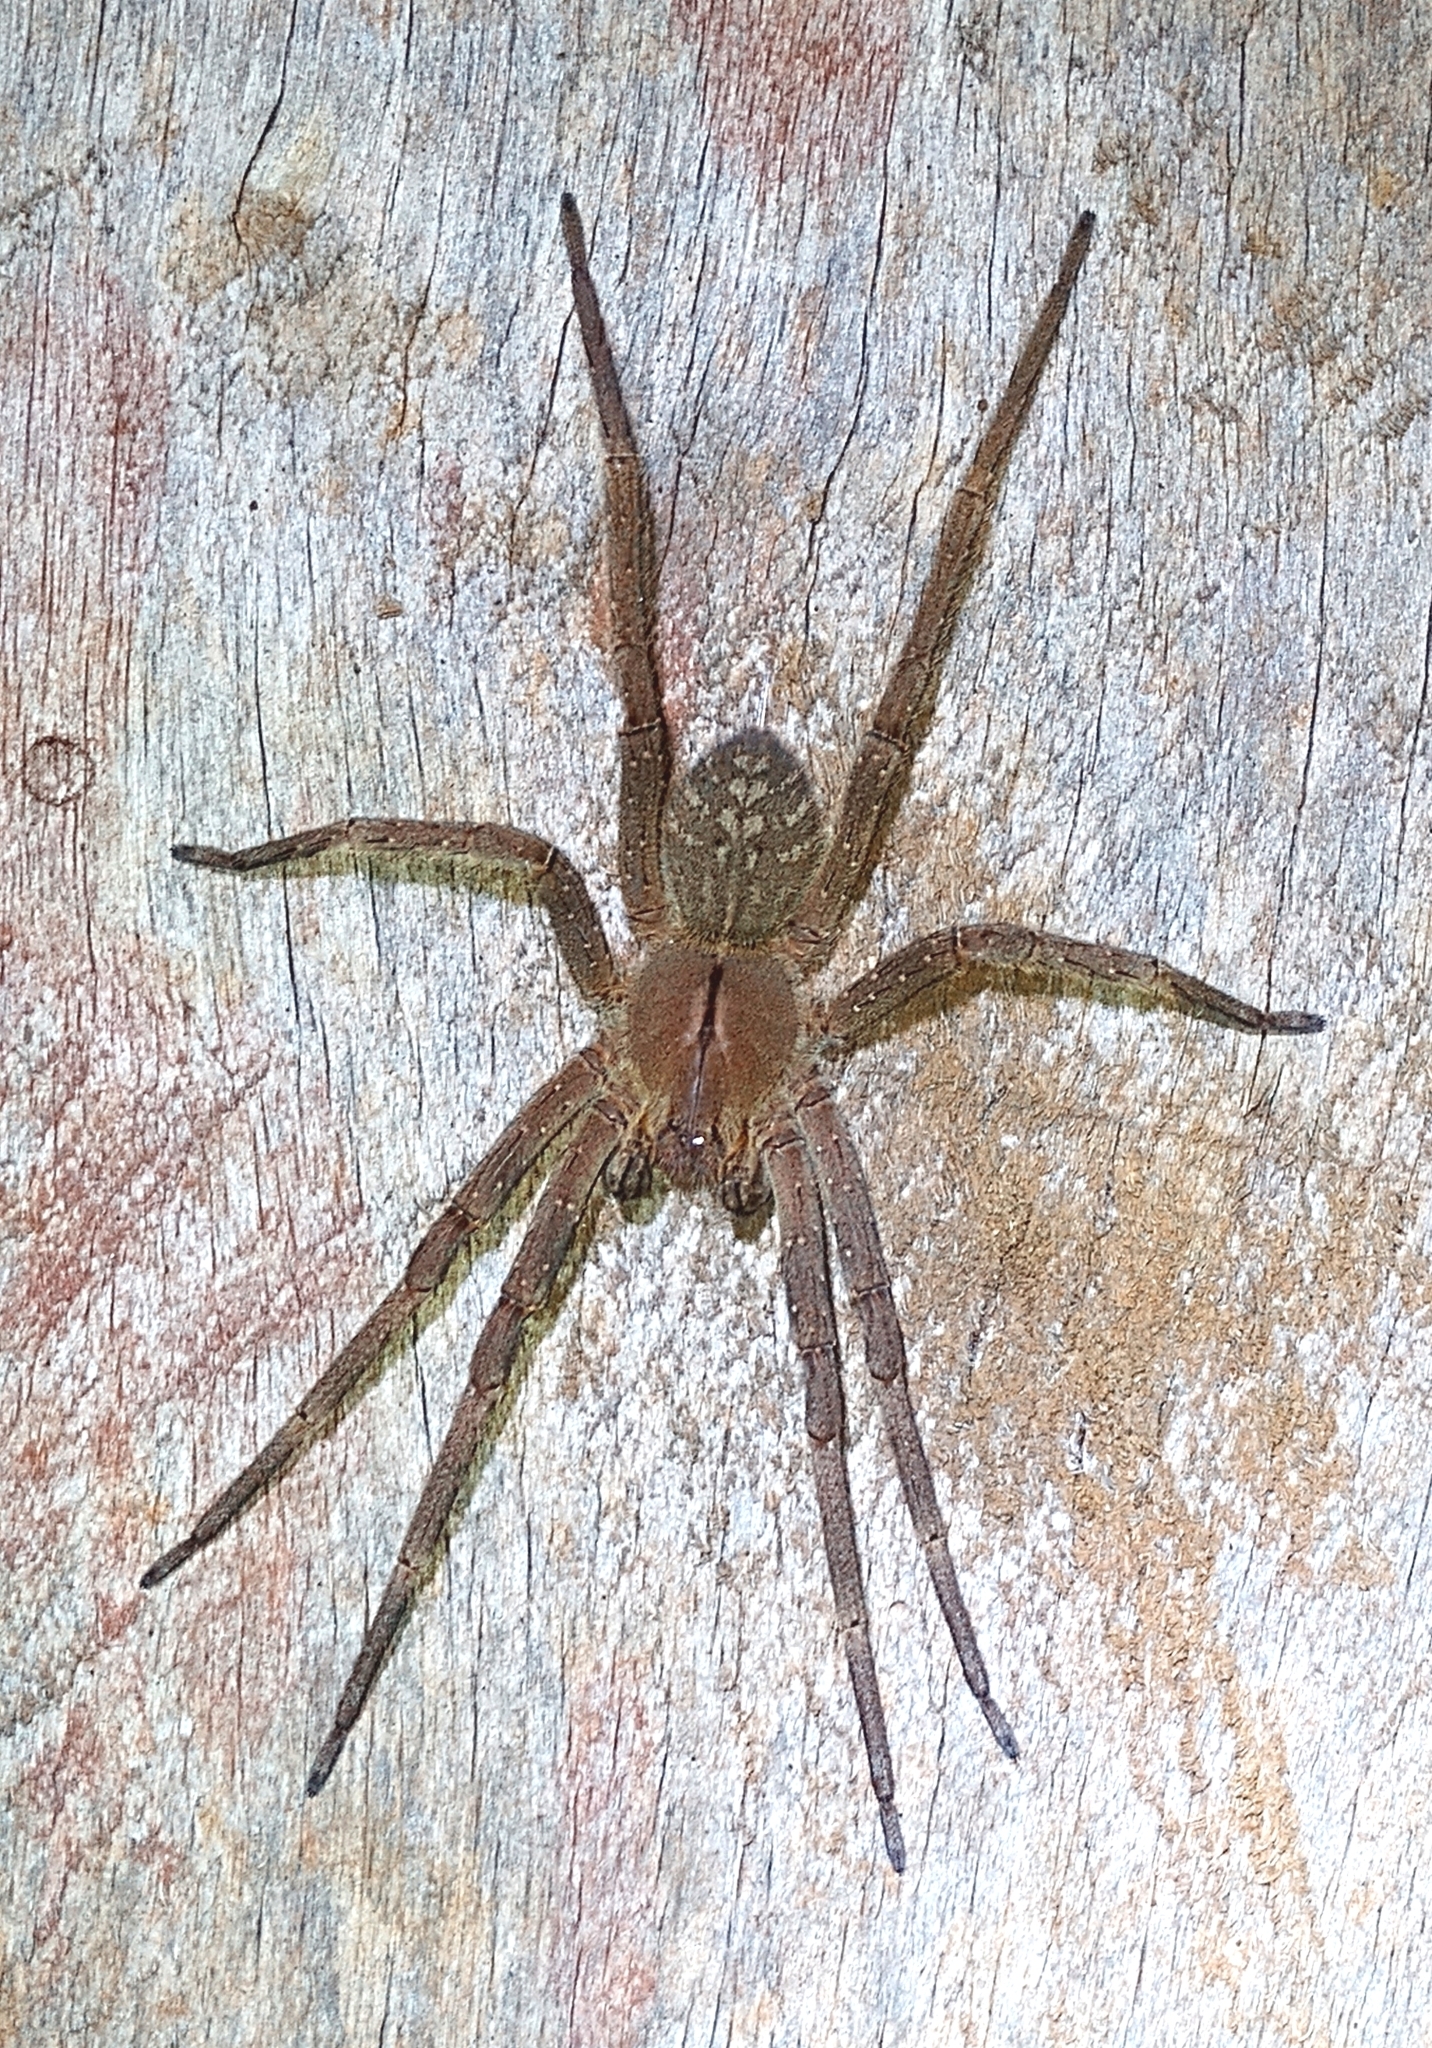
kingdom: Animalia
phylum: Arthropoda
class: Arachnida
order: Araneae
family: Ctenidae
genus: Phoneutria
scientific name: Phoneutria nigriventer
